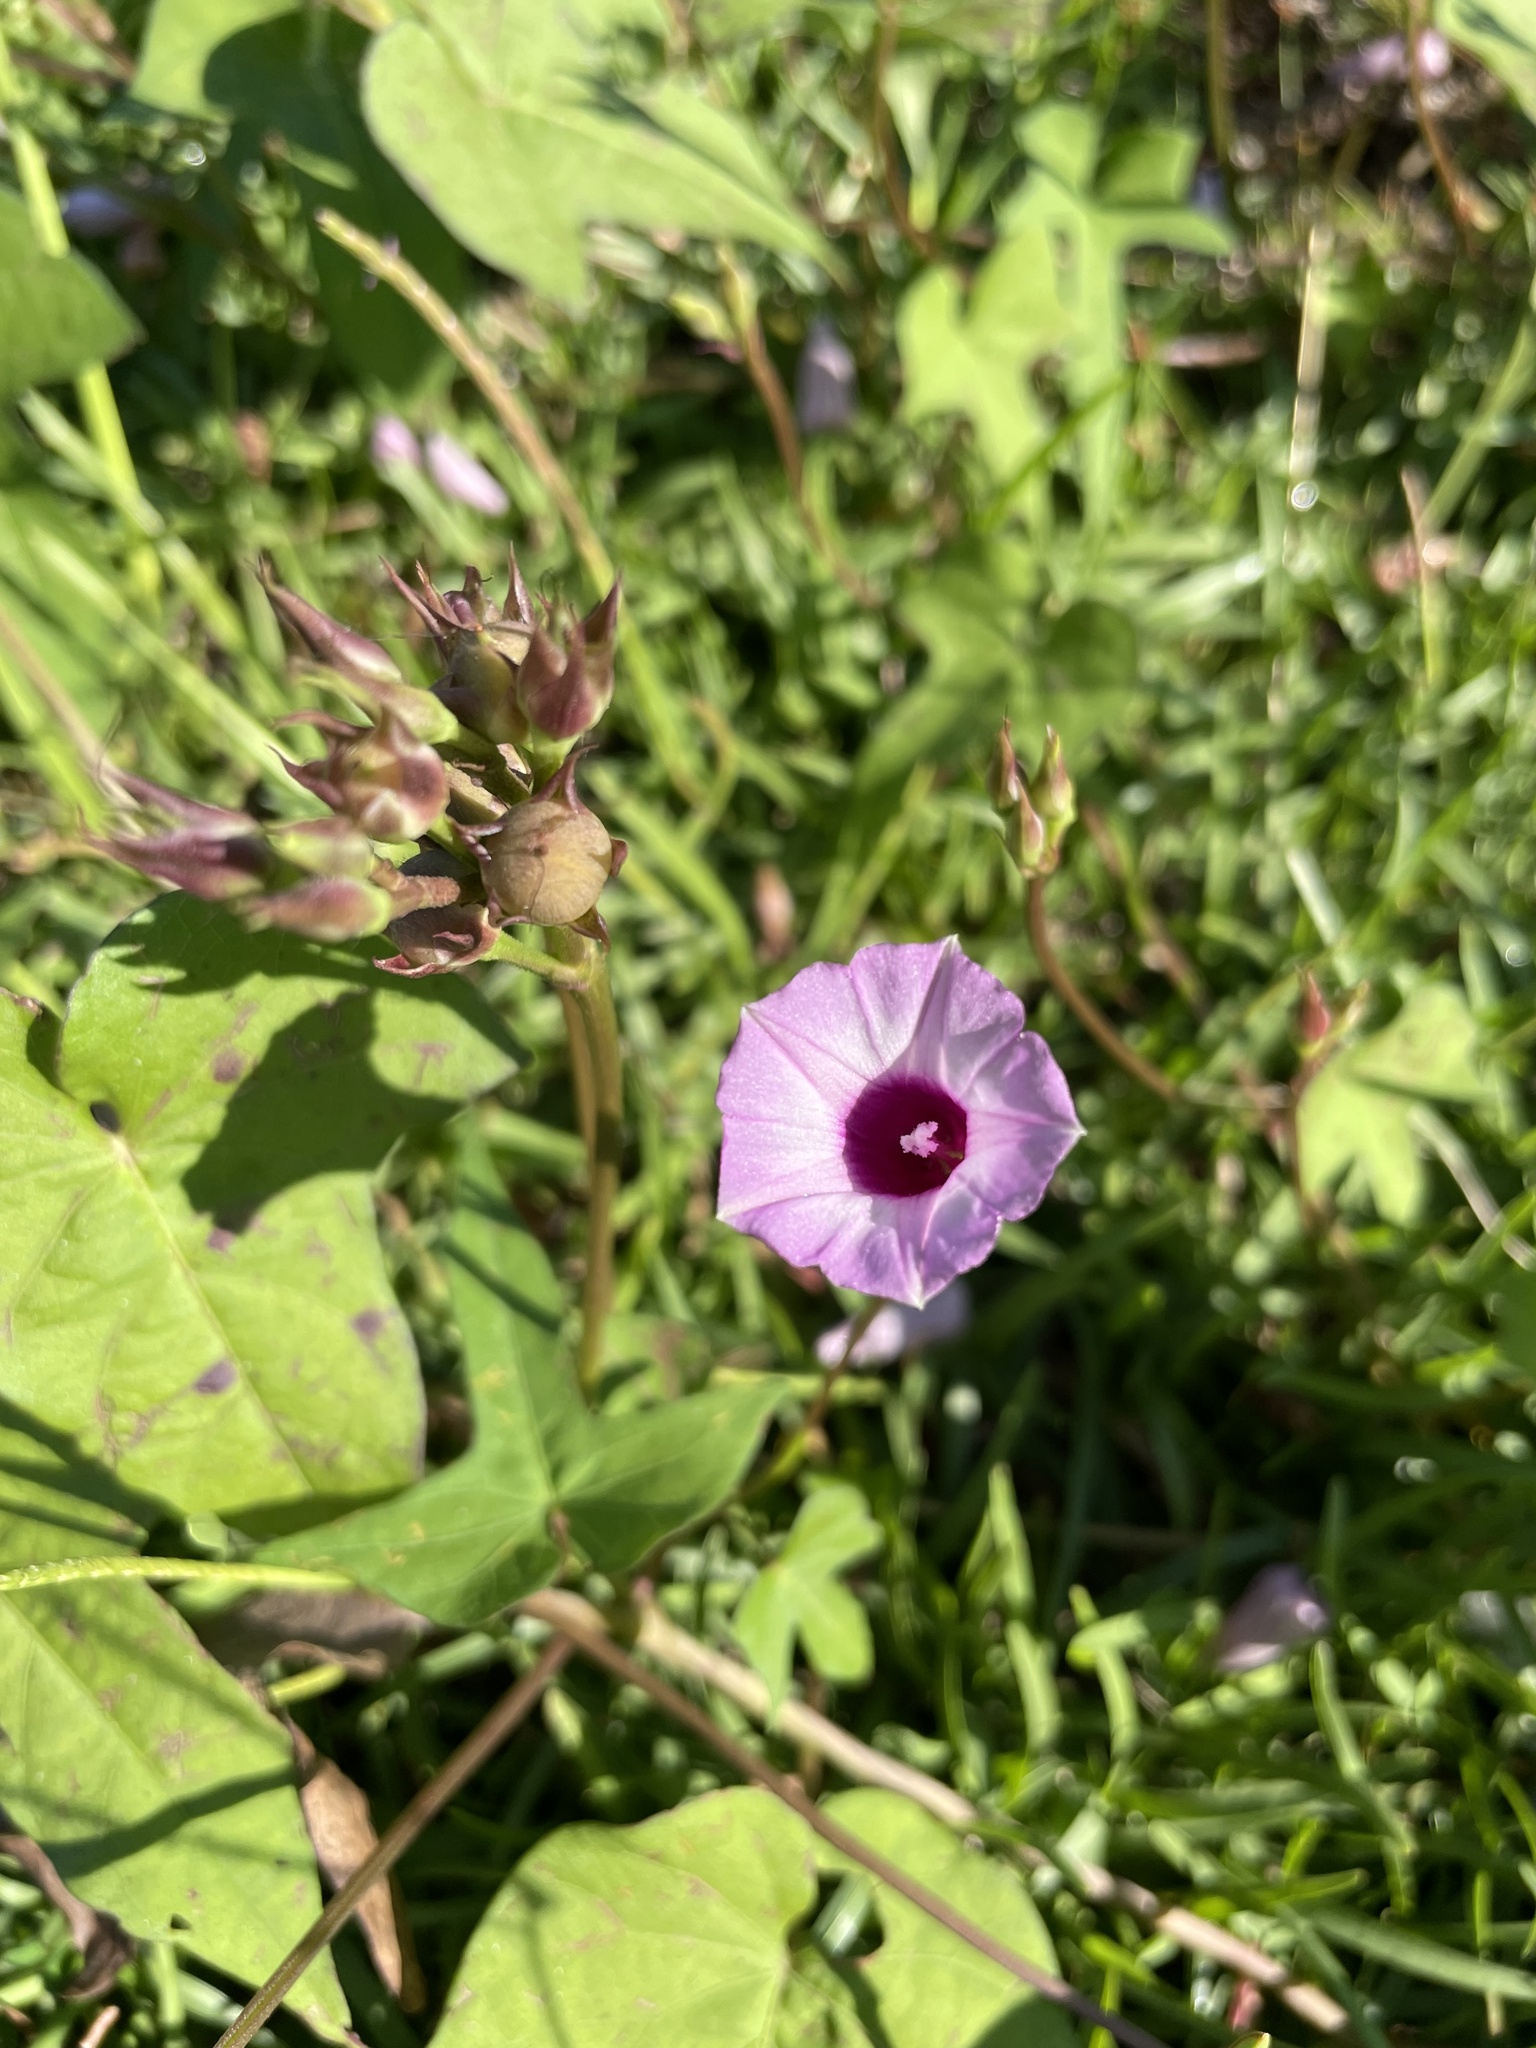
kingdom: Plantae
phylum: Tracheophyta
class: Magnoliopsida
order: Solanales
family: Convolvulaceae
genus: Ipomoea
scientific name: Ipomoea triloba
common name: Little-bell
